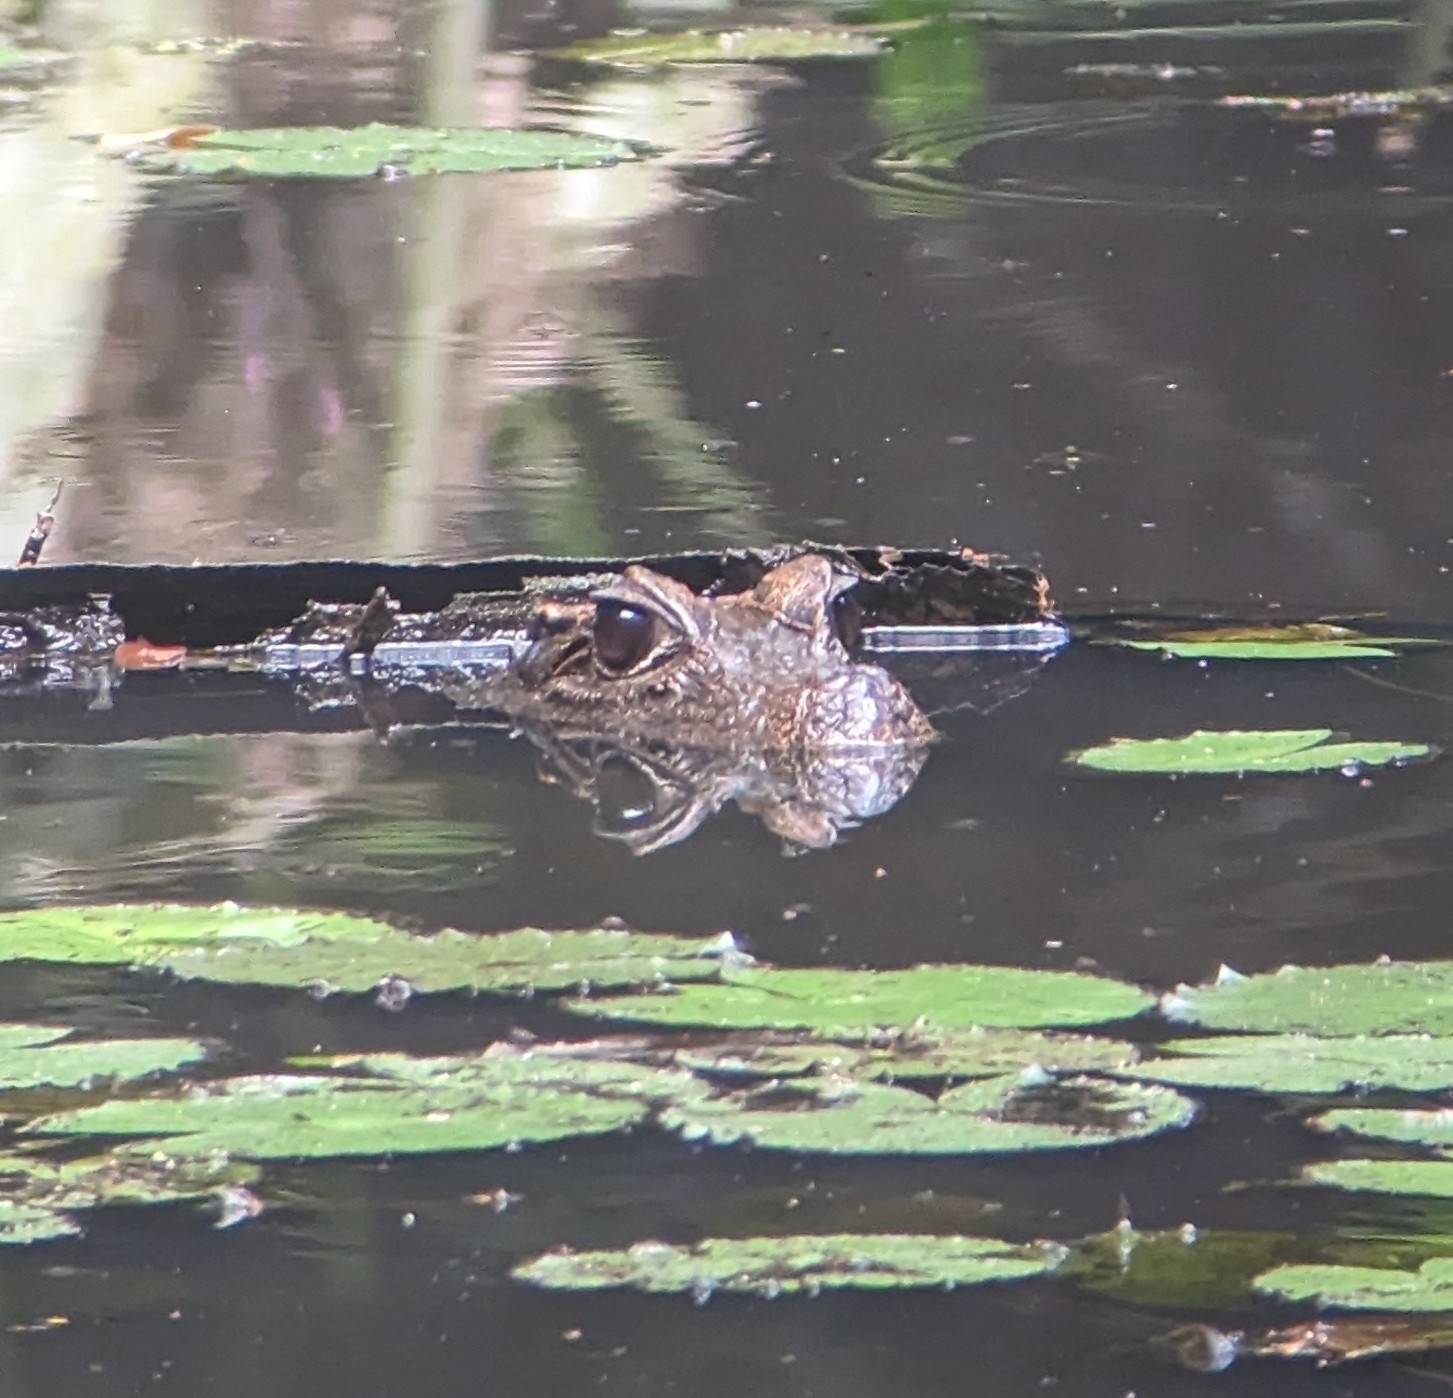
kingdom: Animalia
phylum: Chordata
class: Crocodylia
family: Crocodylidae
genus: Osteolaemus
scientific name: Osteolaemus tetraspis
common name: West african dwarf crocodile
